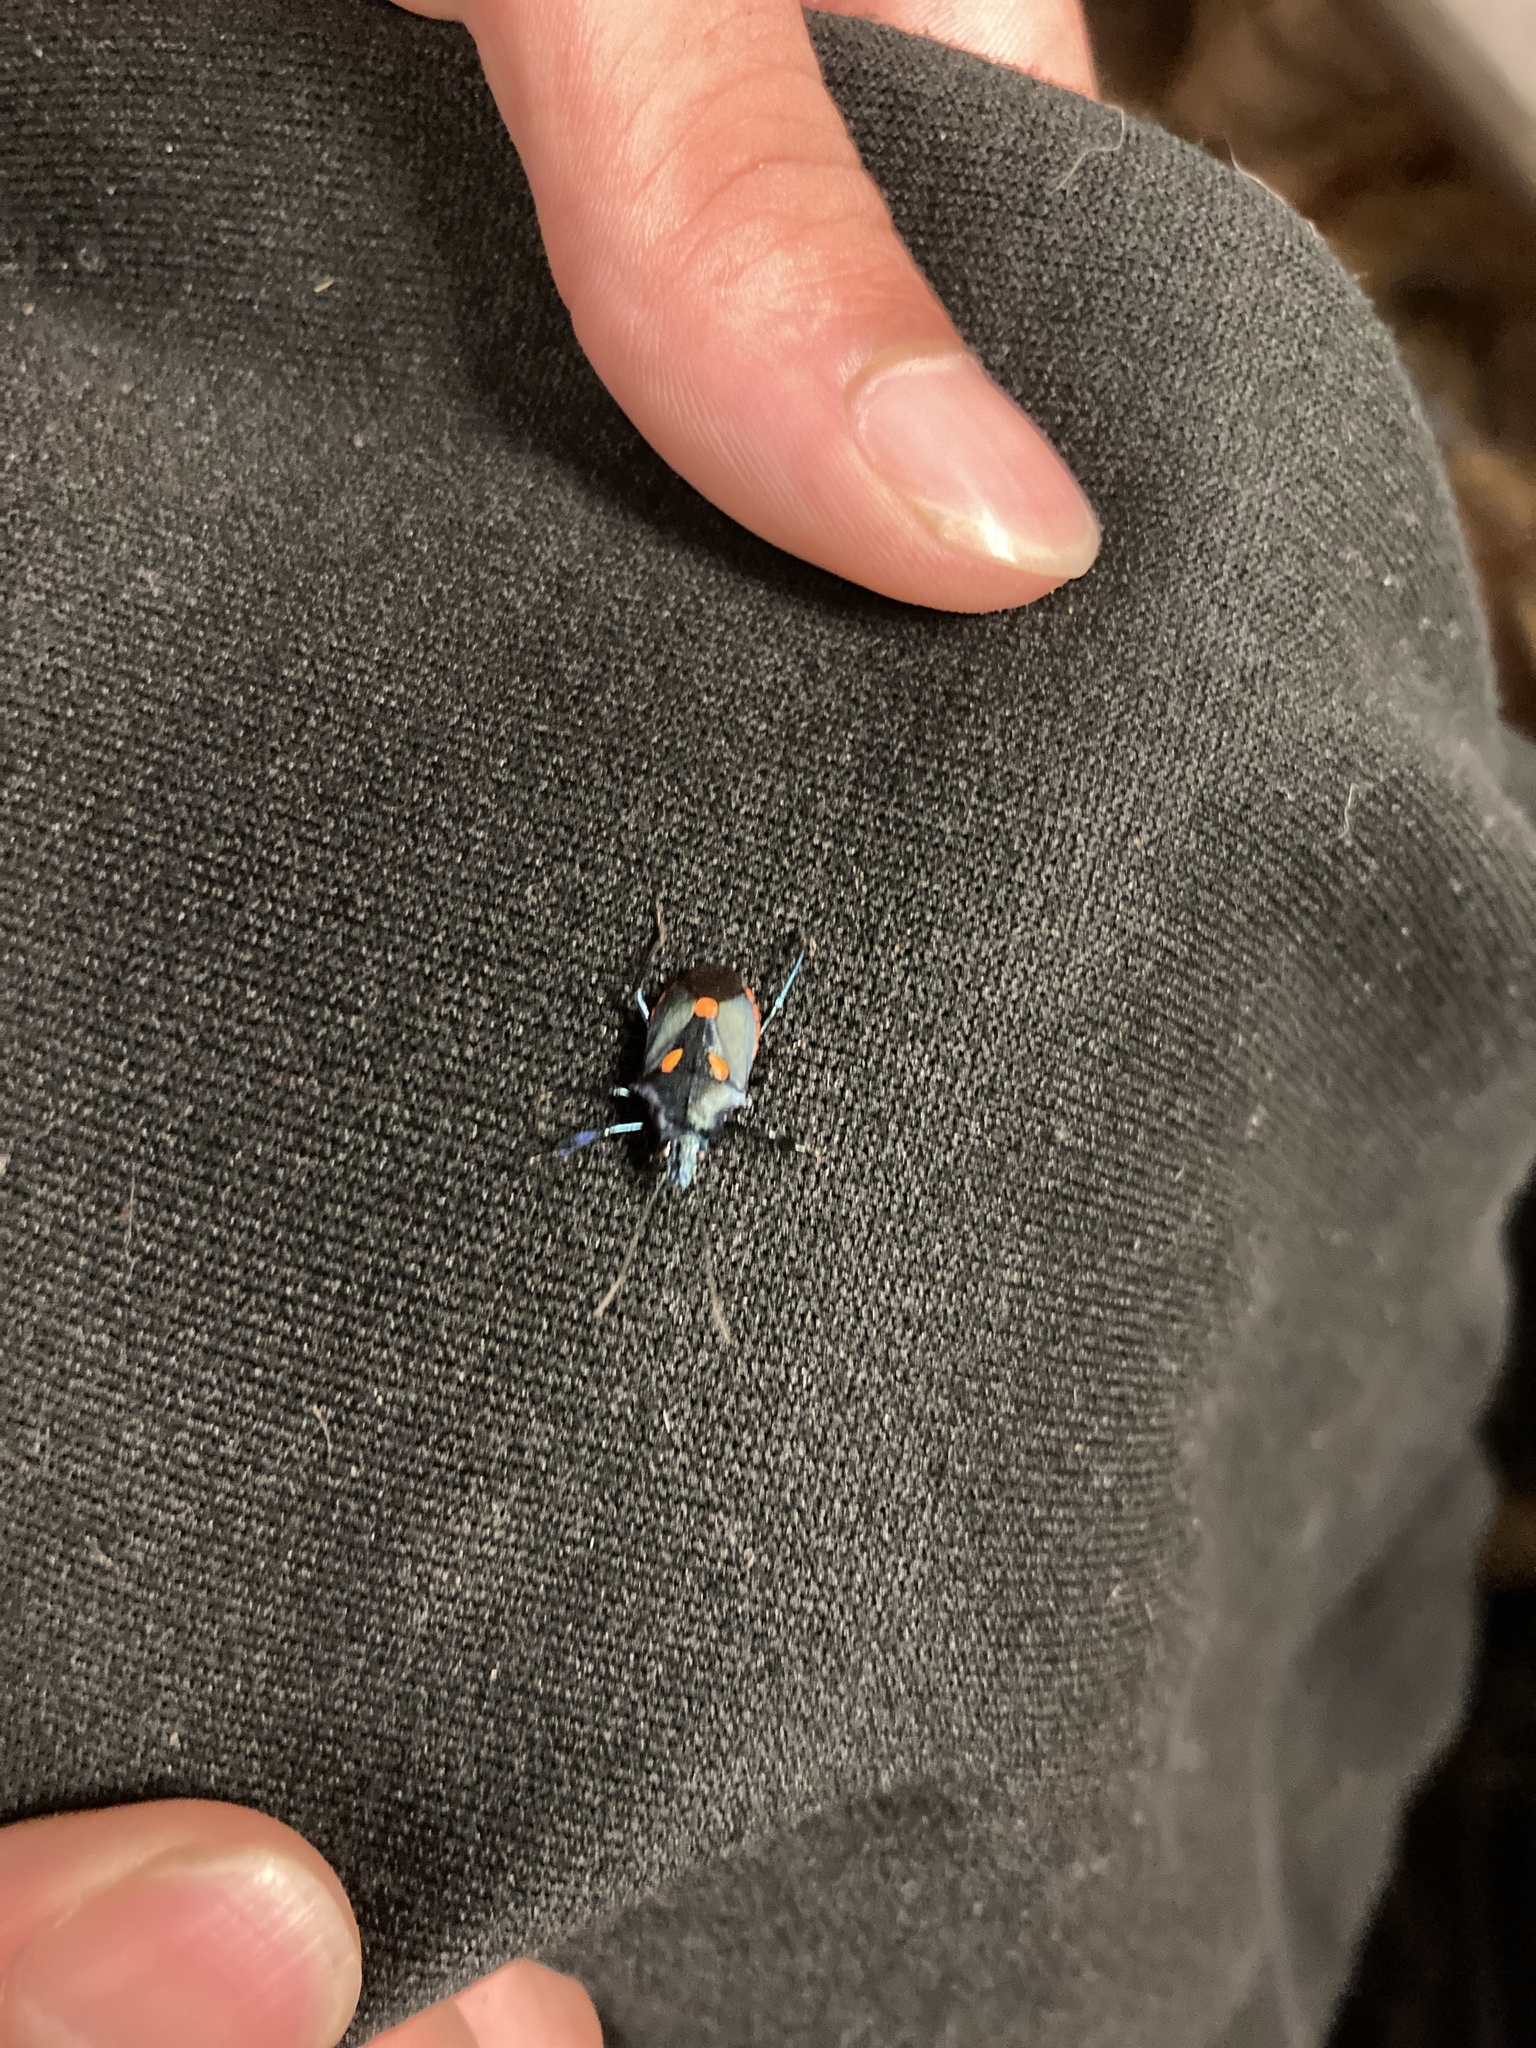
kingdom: Animalia
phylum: Arthropoda
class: Insecta
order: Hemiptera
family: Pentatomidae
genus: Euthyrhynchus
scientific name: Euthyrhynchus floridanus
